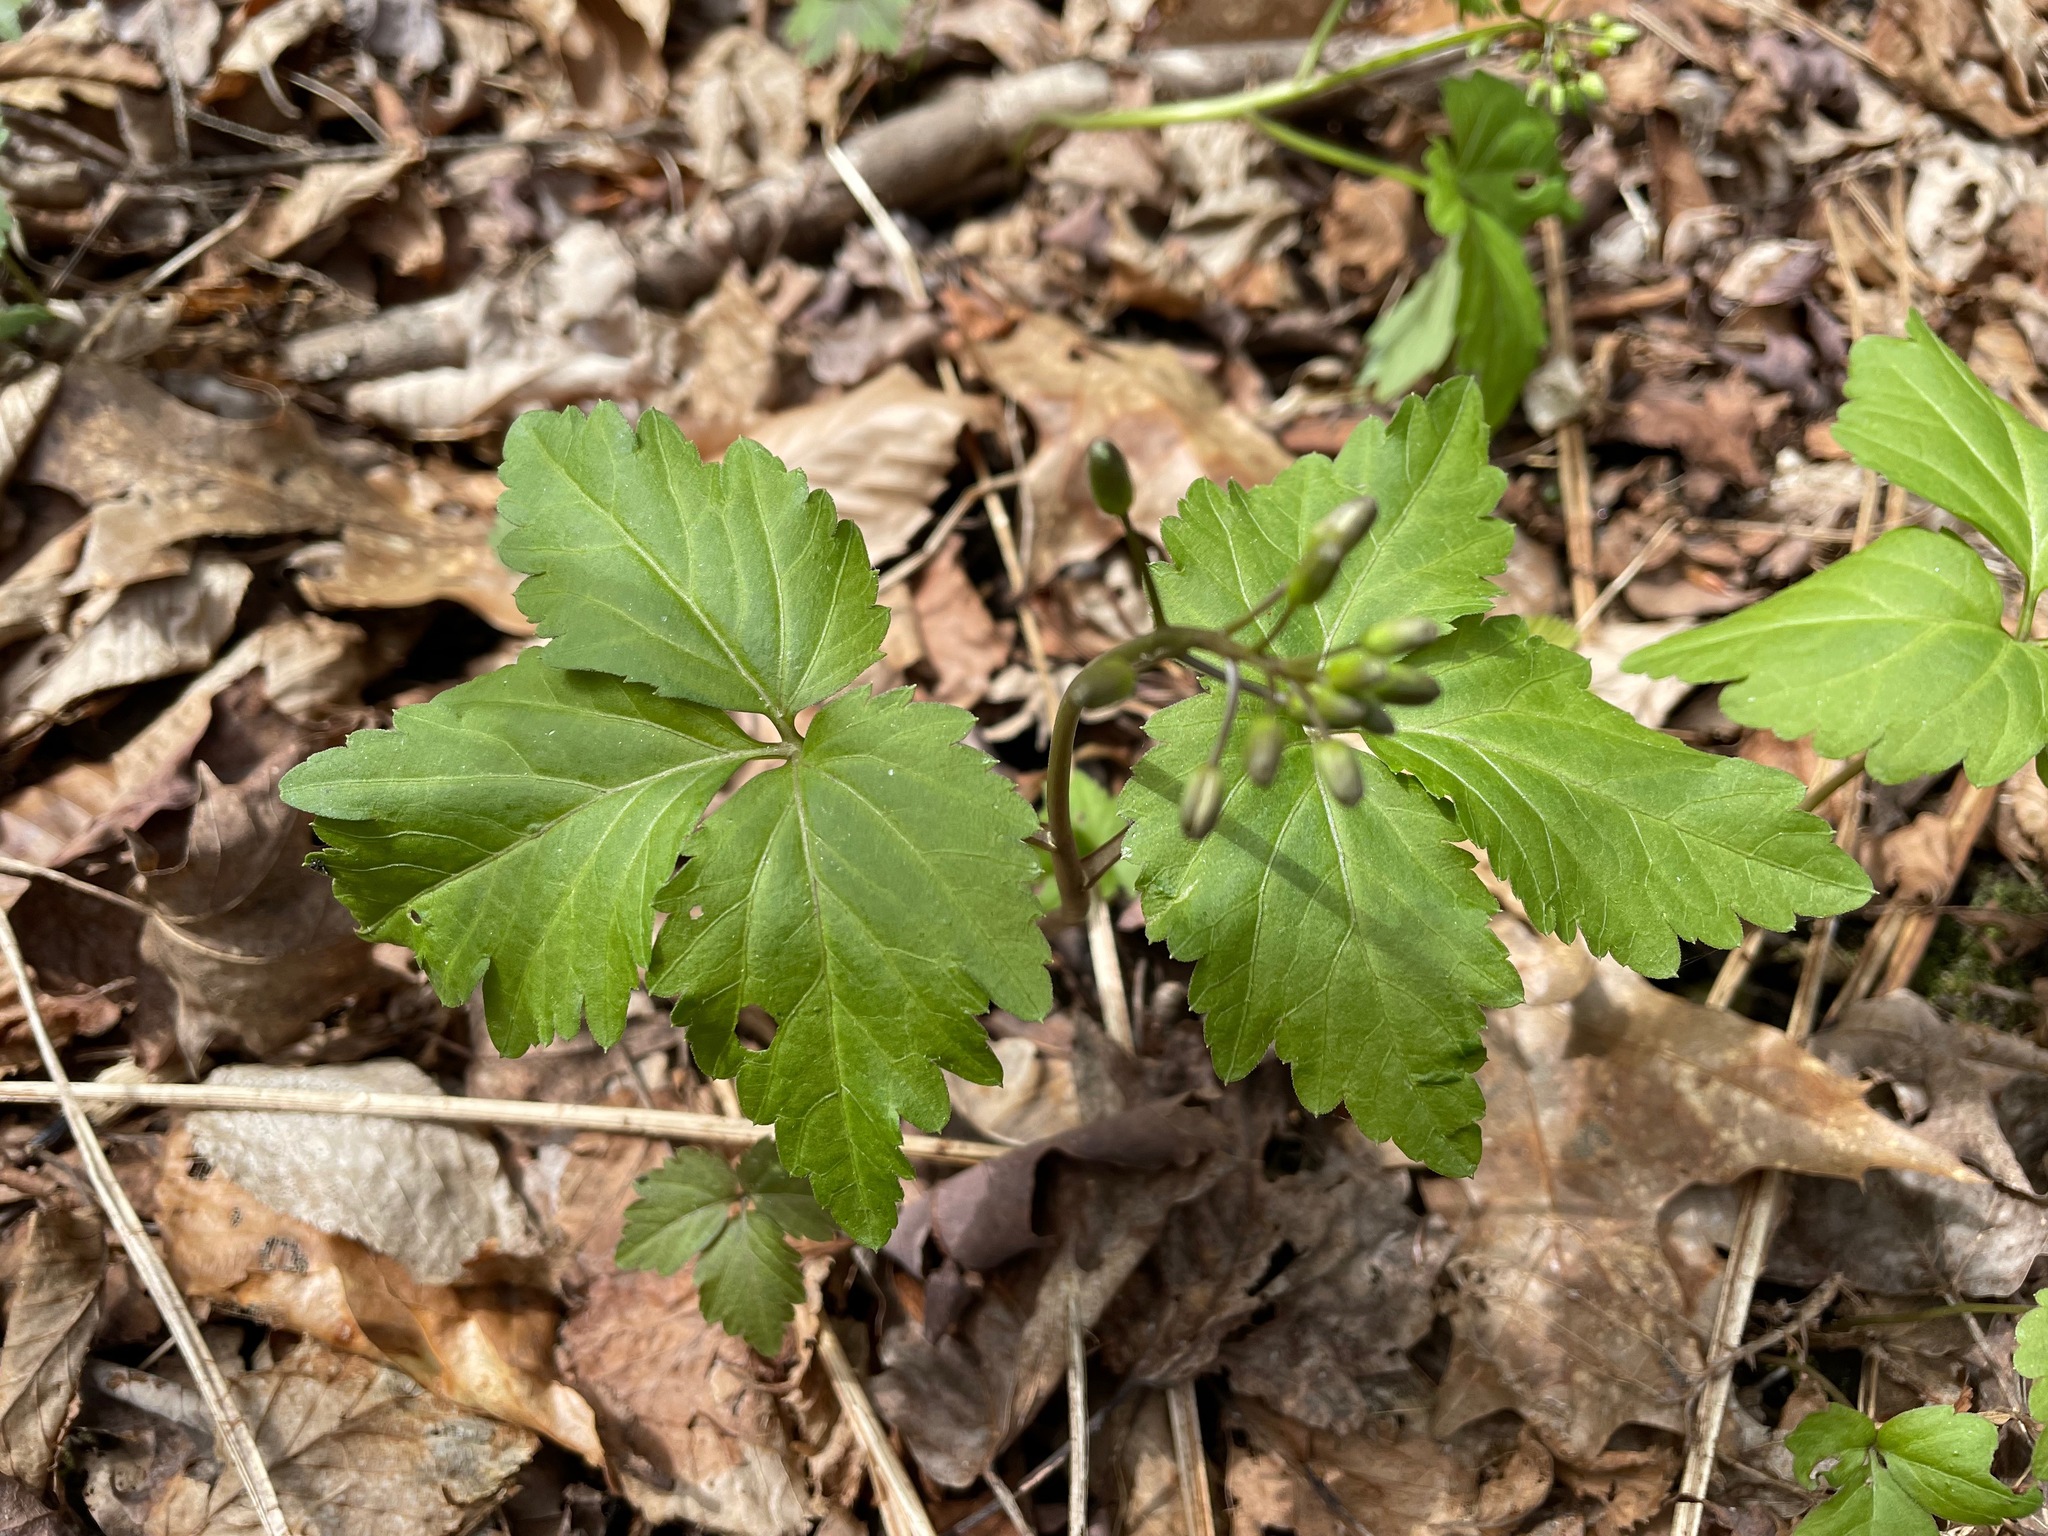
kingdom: Plantae
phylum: Tracheophyta
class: Magnoliopsida
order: Brassicales
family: Brassicaceae
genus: Cardamine
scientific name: Cardamine diphylla
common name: Broad-leaved toothwort
